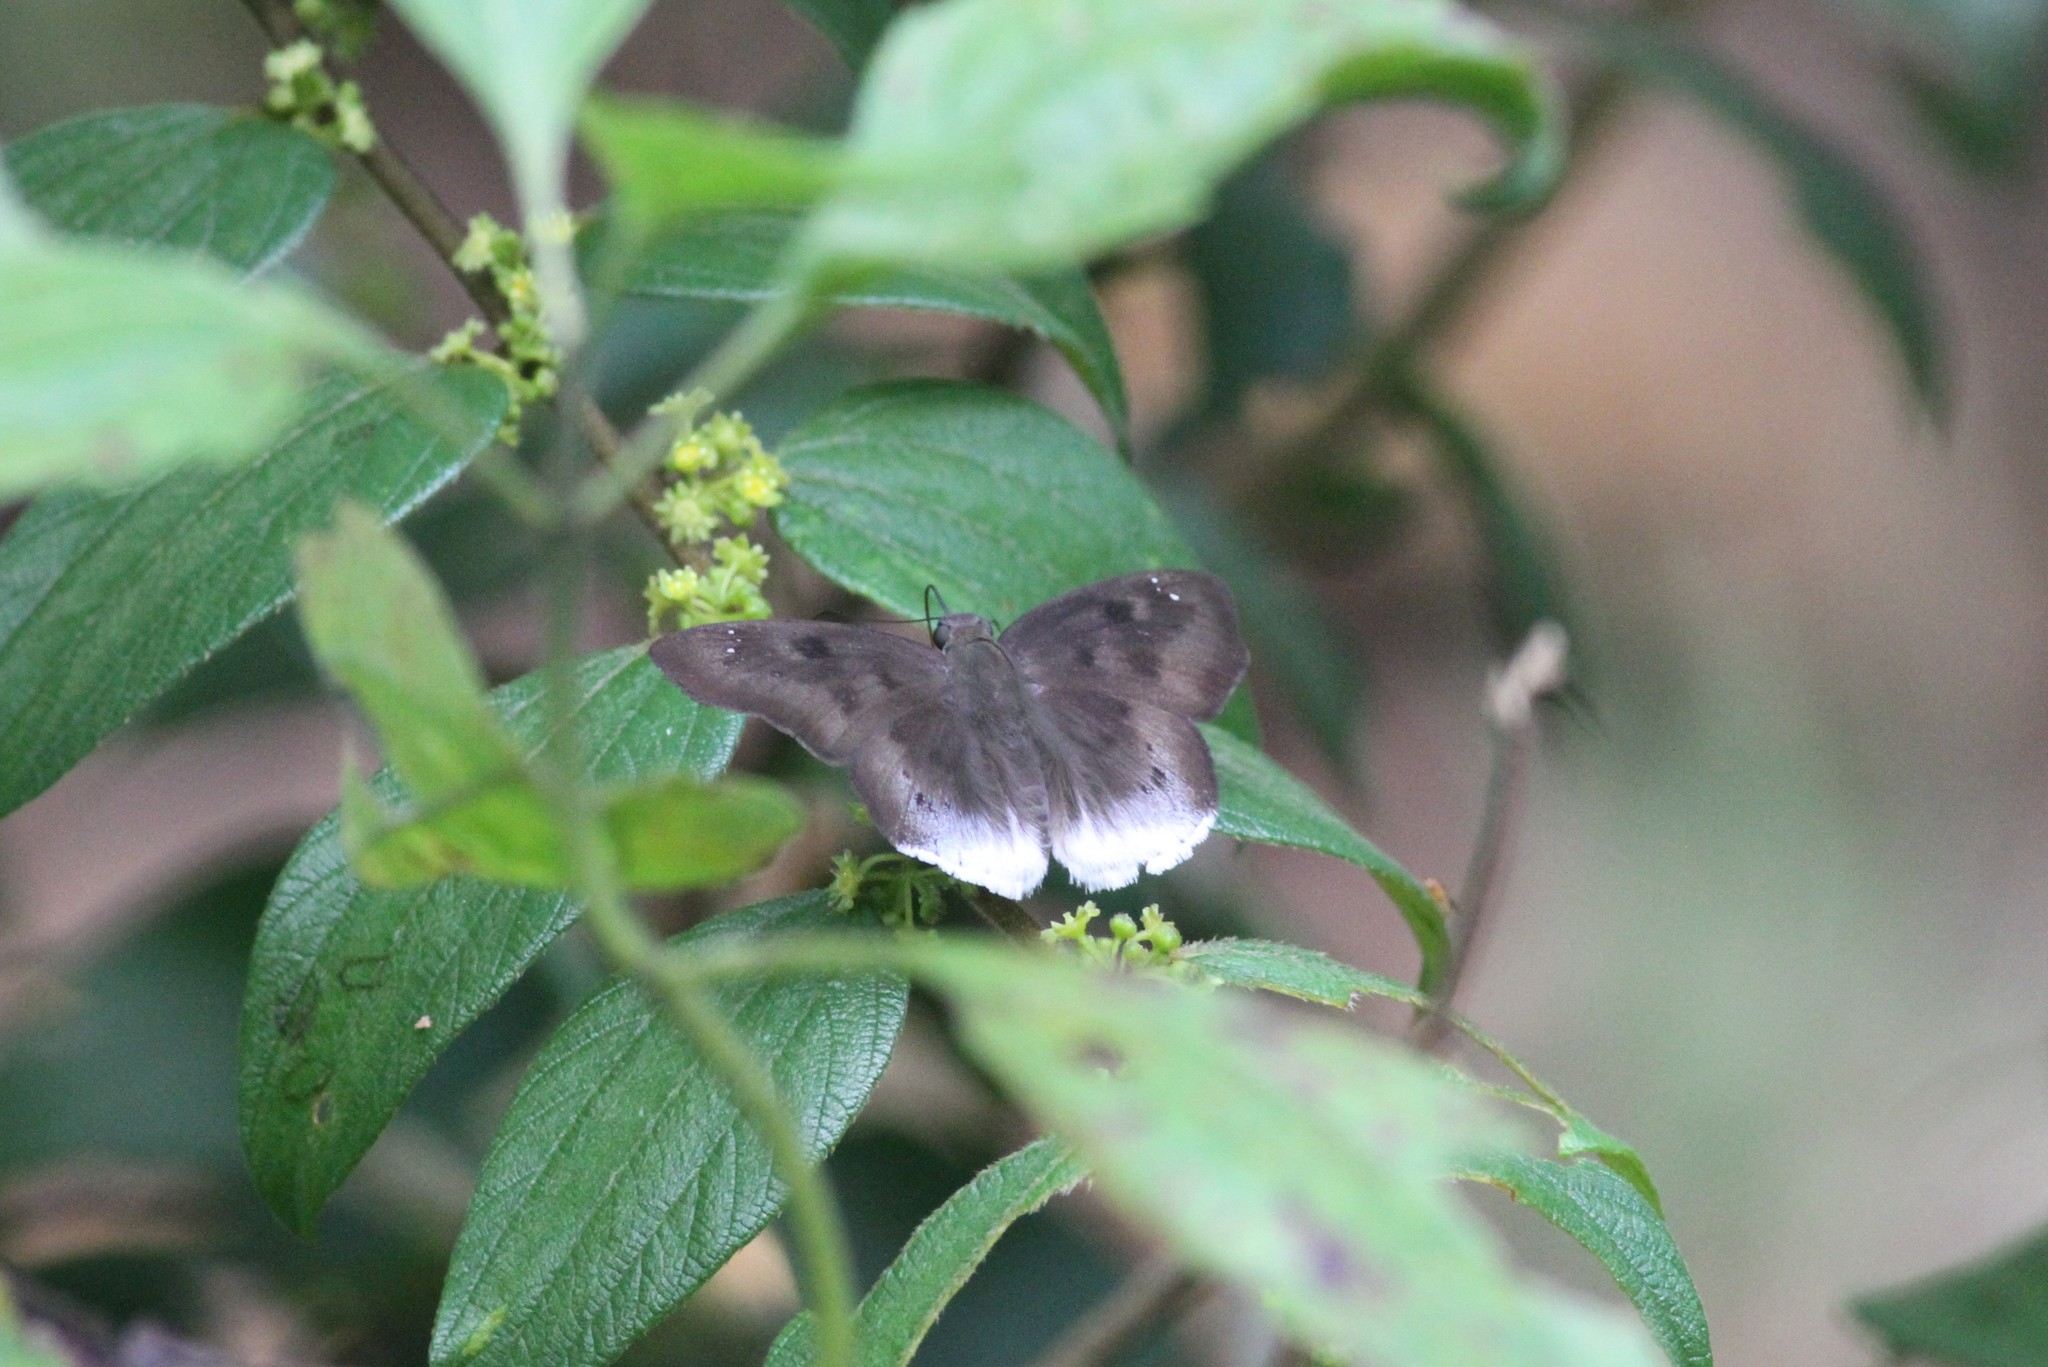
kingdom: Animalia
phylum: Arthropoda
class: Insecta
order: Lepidoptera
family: Hesperiidae
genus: Tagiades
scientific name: Tagiades gana
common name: Suffused snow flat
